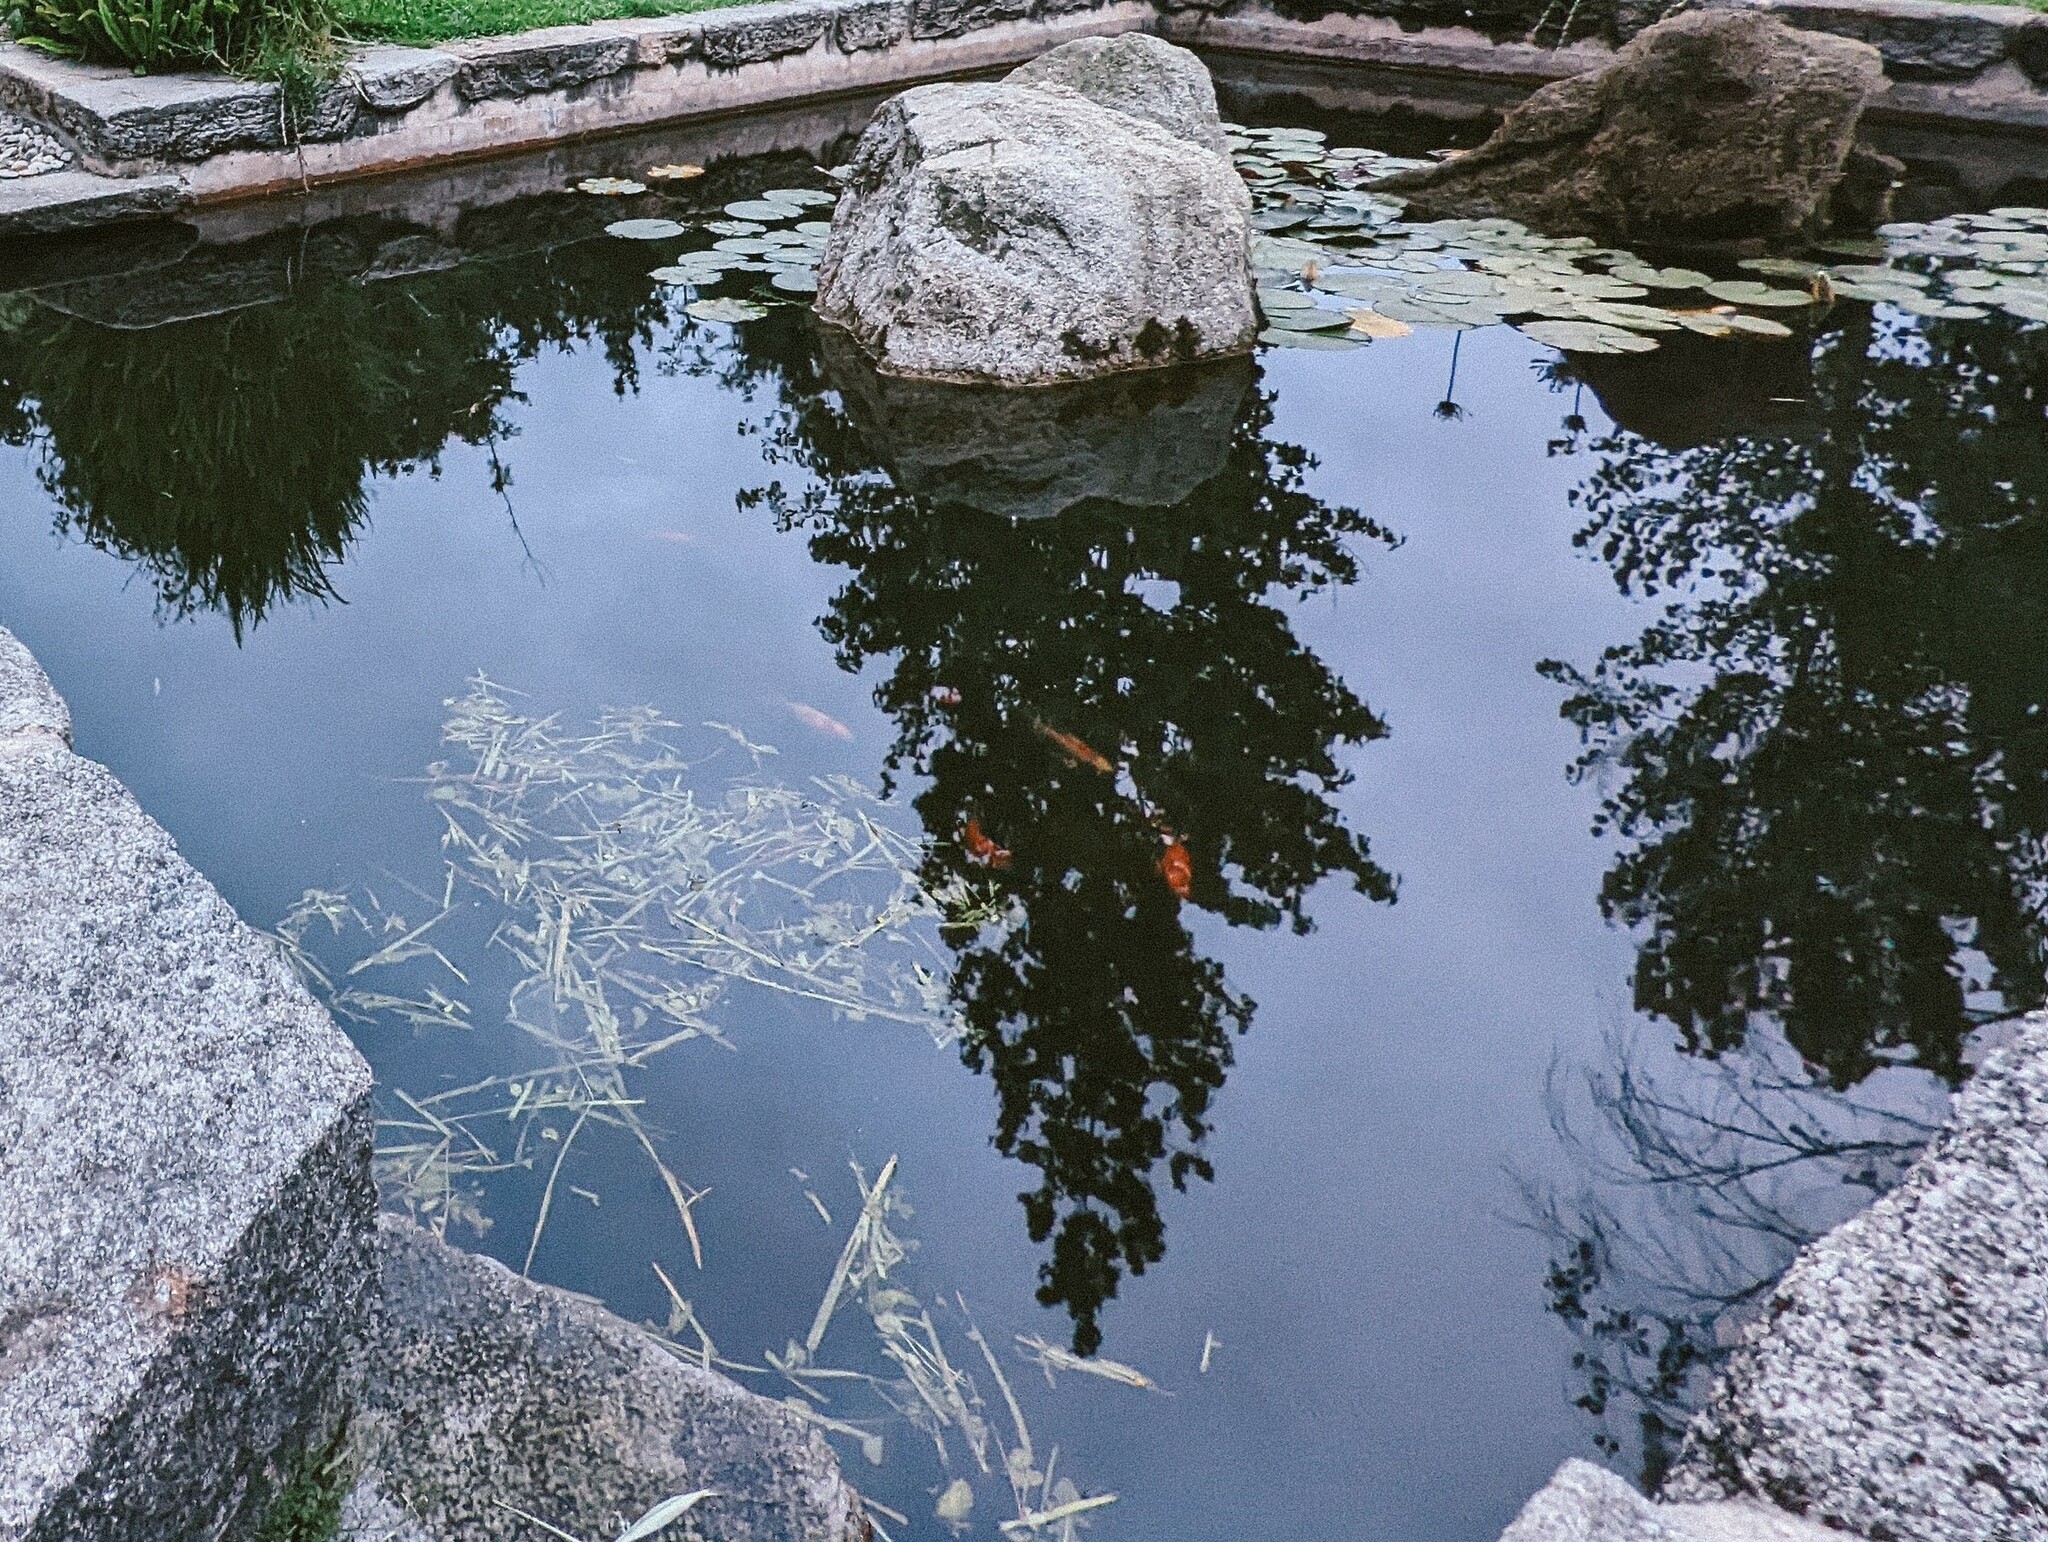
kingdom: Animalia
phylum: Chordata
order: Cypriniformes
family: Cyprinidae
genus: Cyprinus
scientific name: Cyprinus rubrofuscus
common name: Koi
